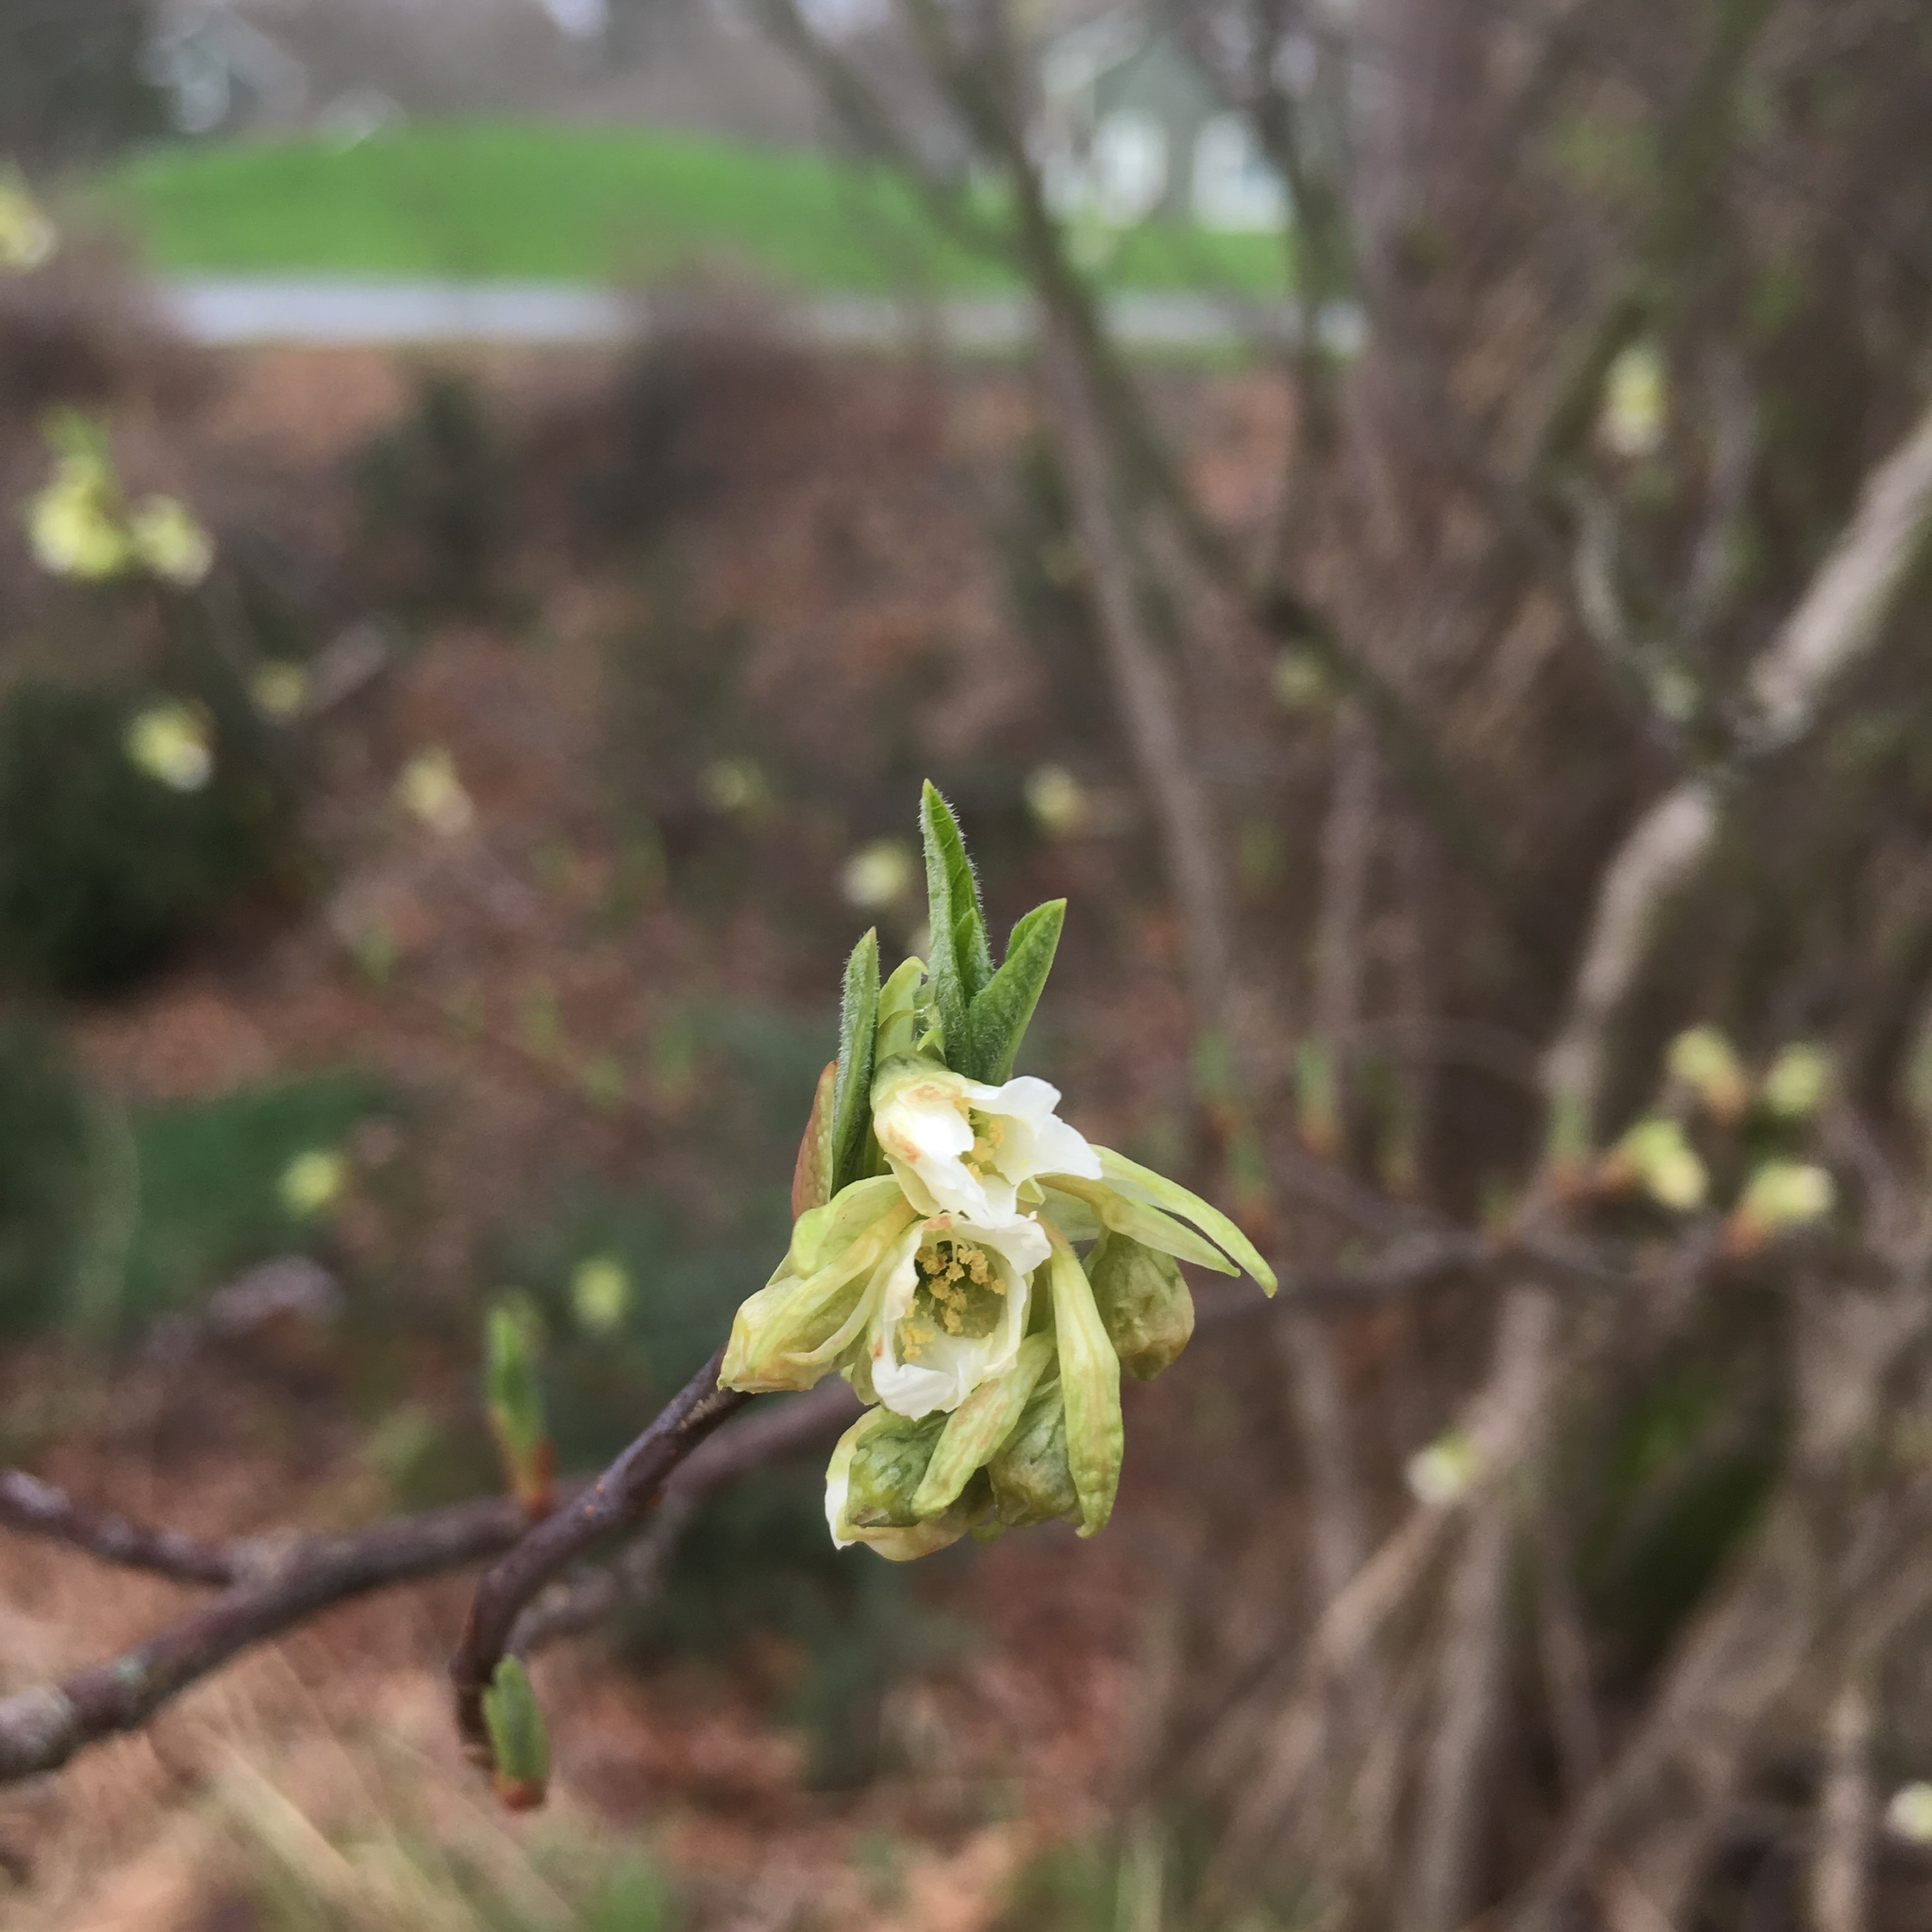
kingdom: Plantae
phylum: Tracheophyta
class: Magnoliopsida
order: Rosales
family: Rosaceae
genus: Oemleria
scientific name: Oemleria cerasiformis
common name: Osoberry
